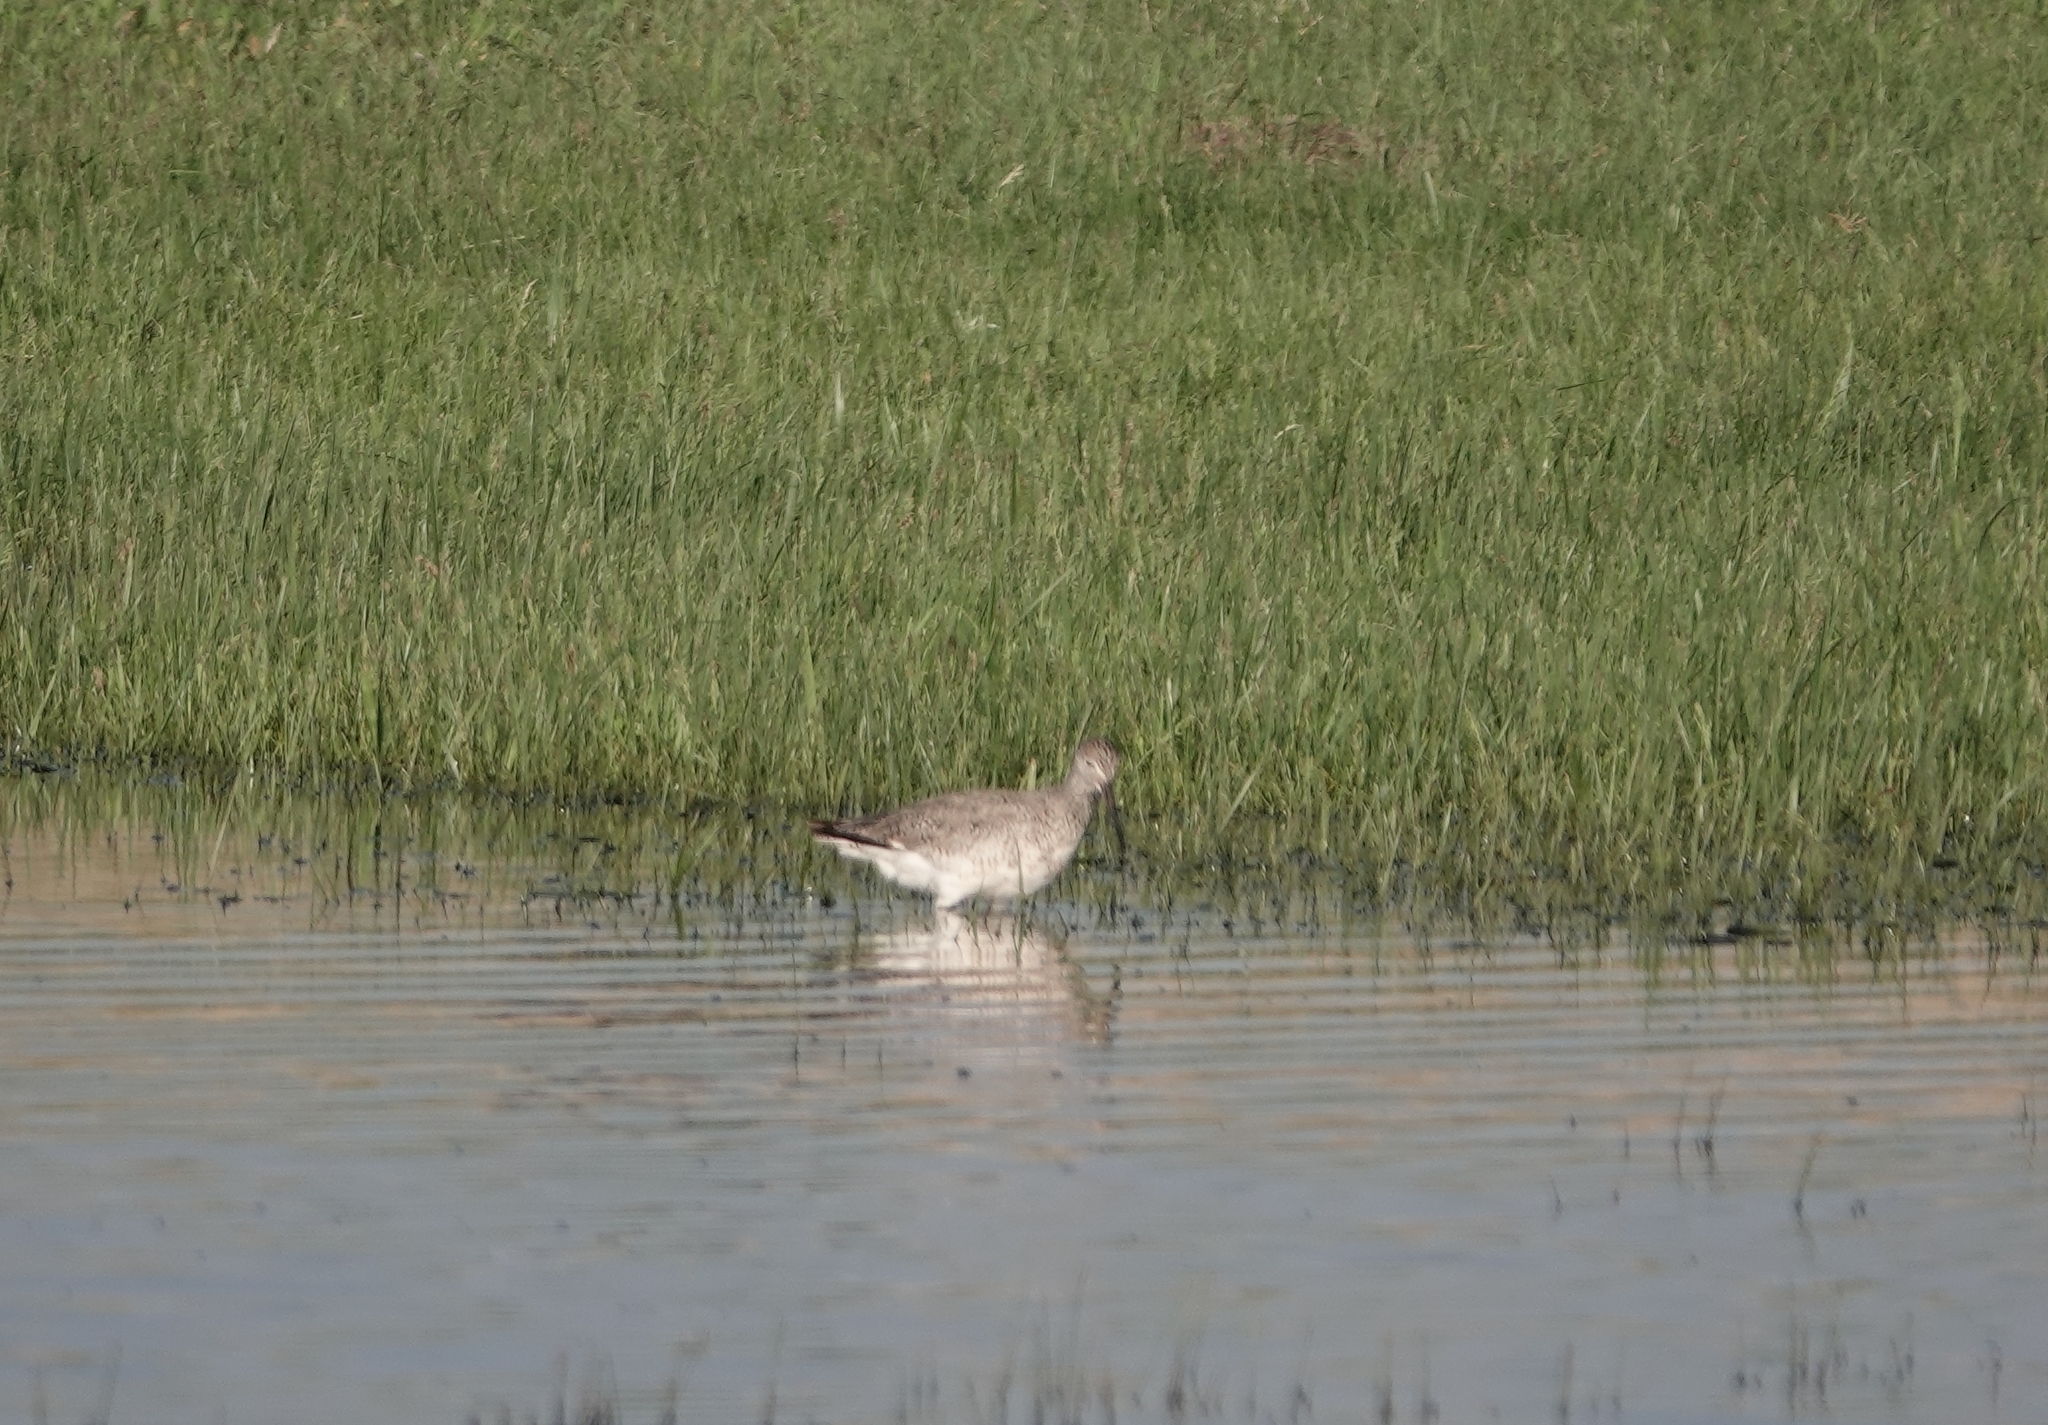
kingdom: Animalia
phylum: Chordata
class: Aves
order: Charadriiformes
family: Scolopacidae
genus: Tringa
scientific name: Tringa semipalmata
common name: Willet
